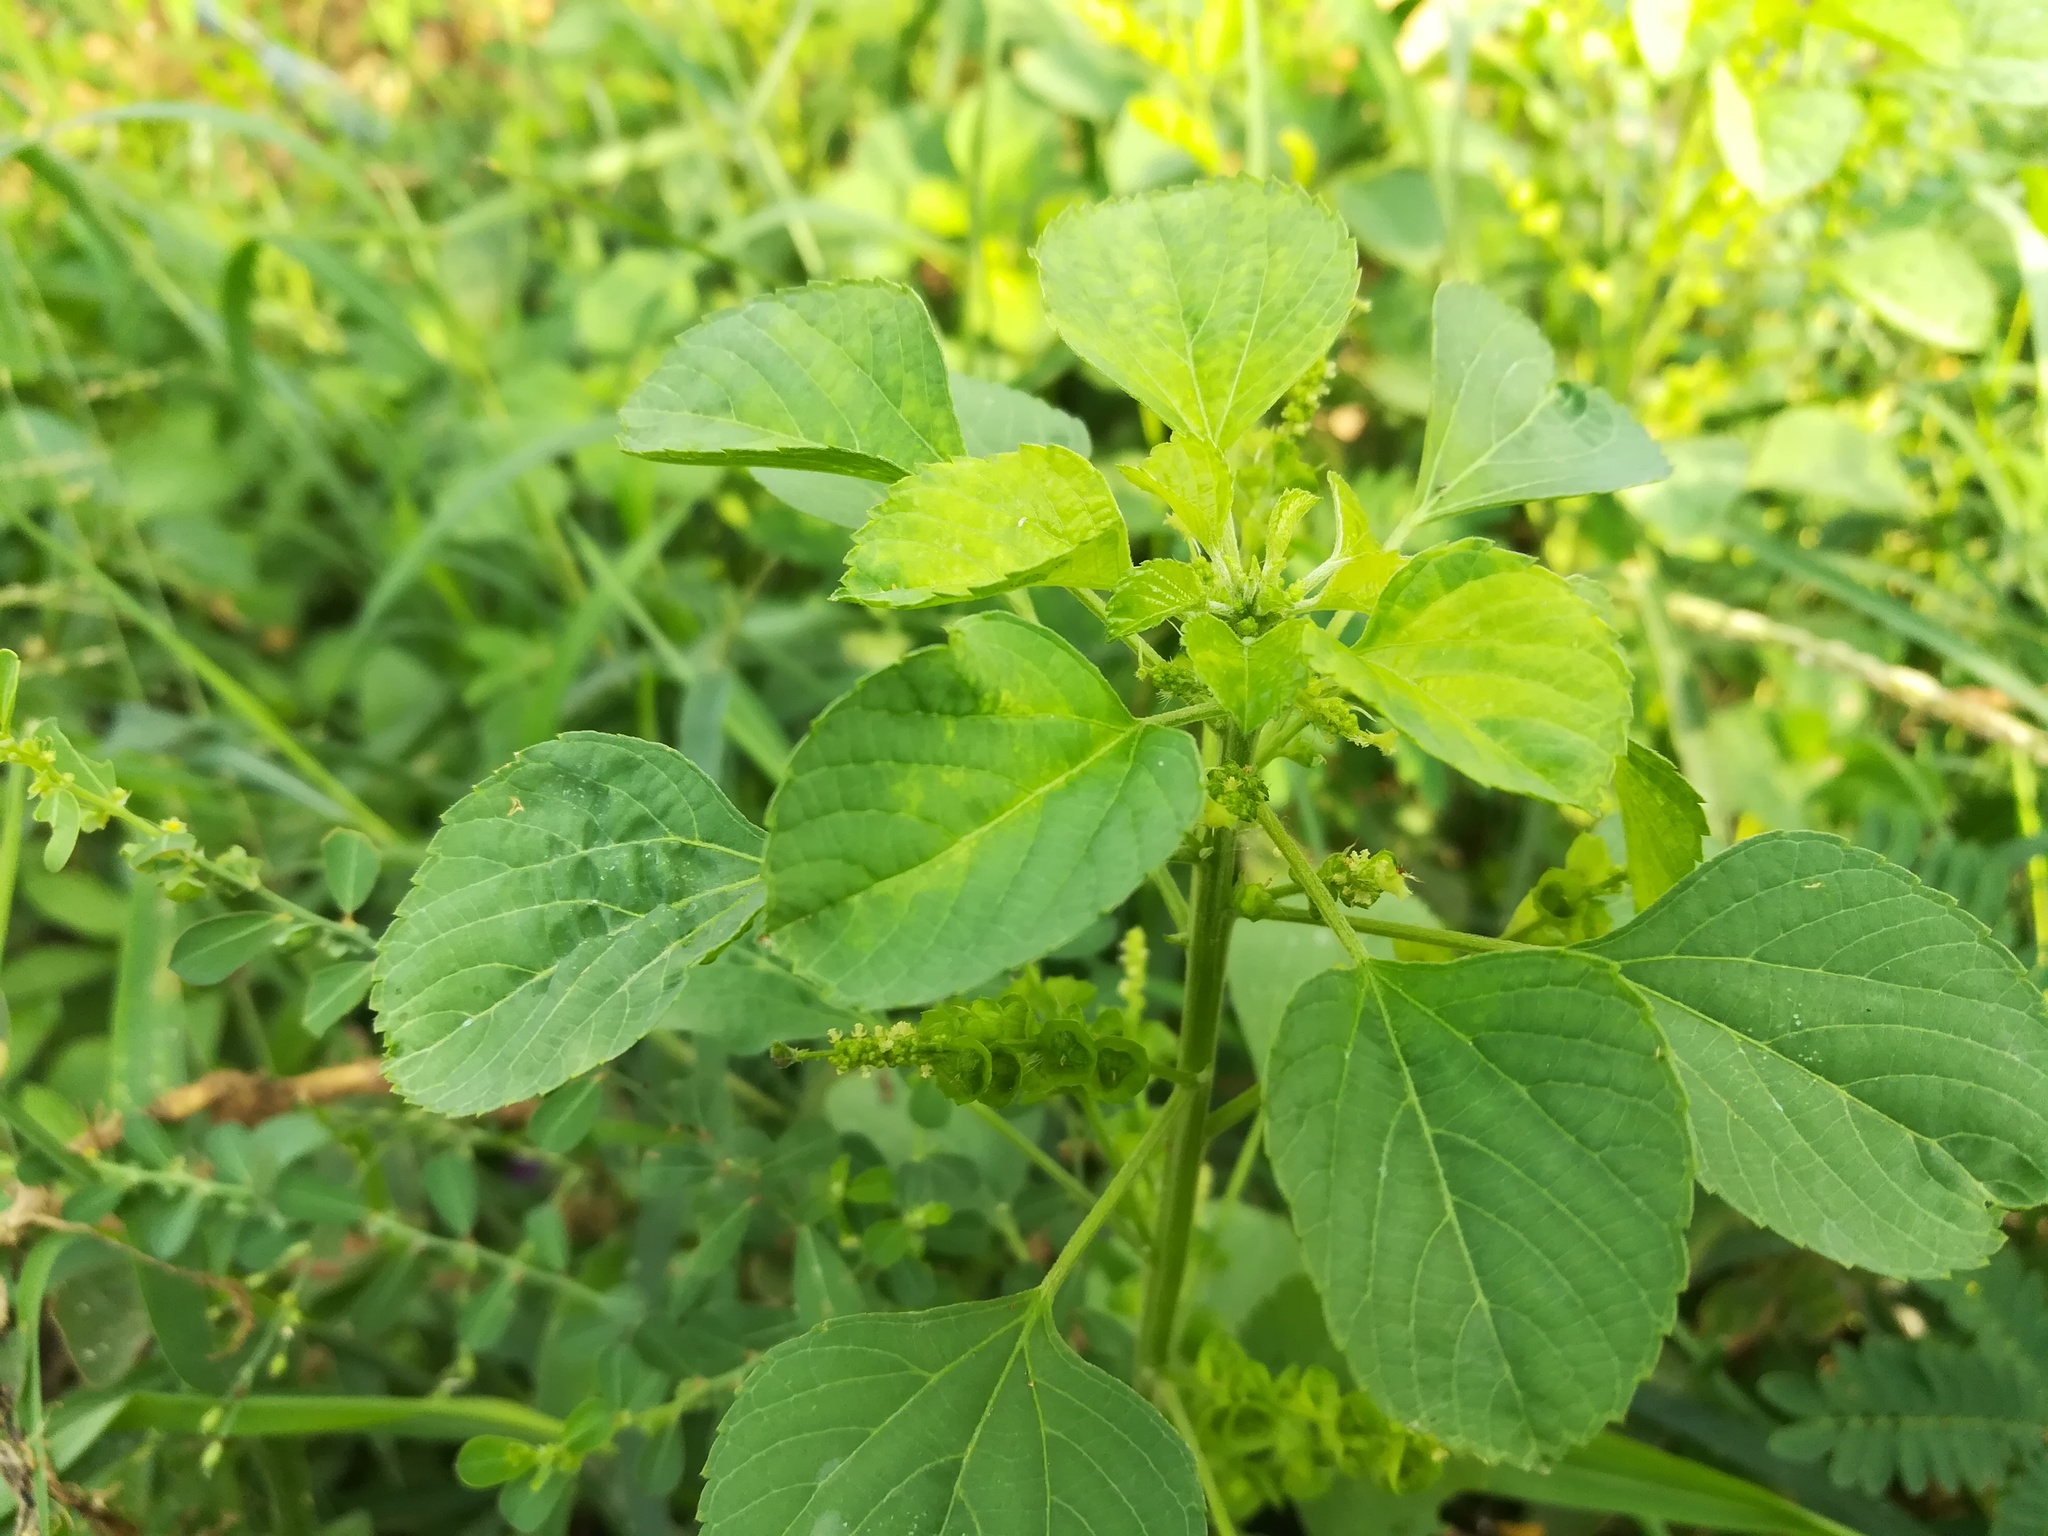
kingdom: Plantae
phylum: Tracheophyta
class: Magnoliopsida
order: Malpighiales
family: Euphorbiaceae
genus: Acalypha
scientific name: Acalypha indica
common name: Indian acalypha
